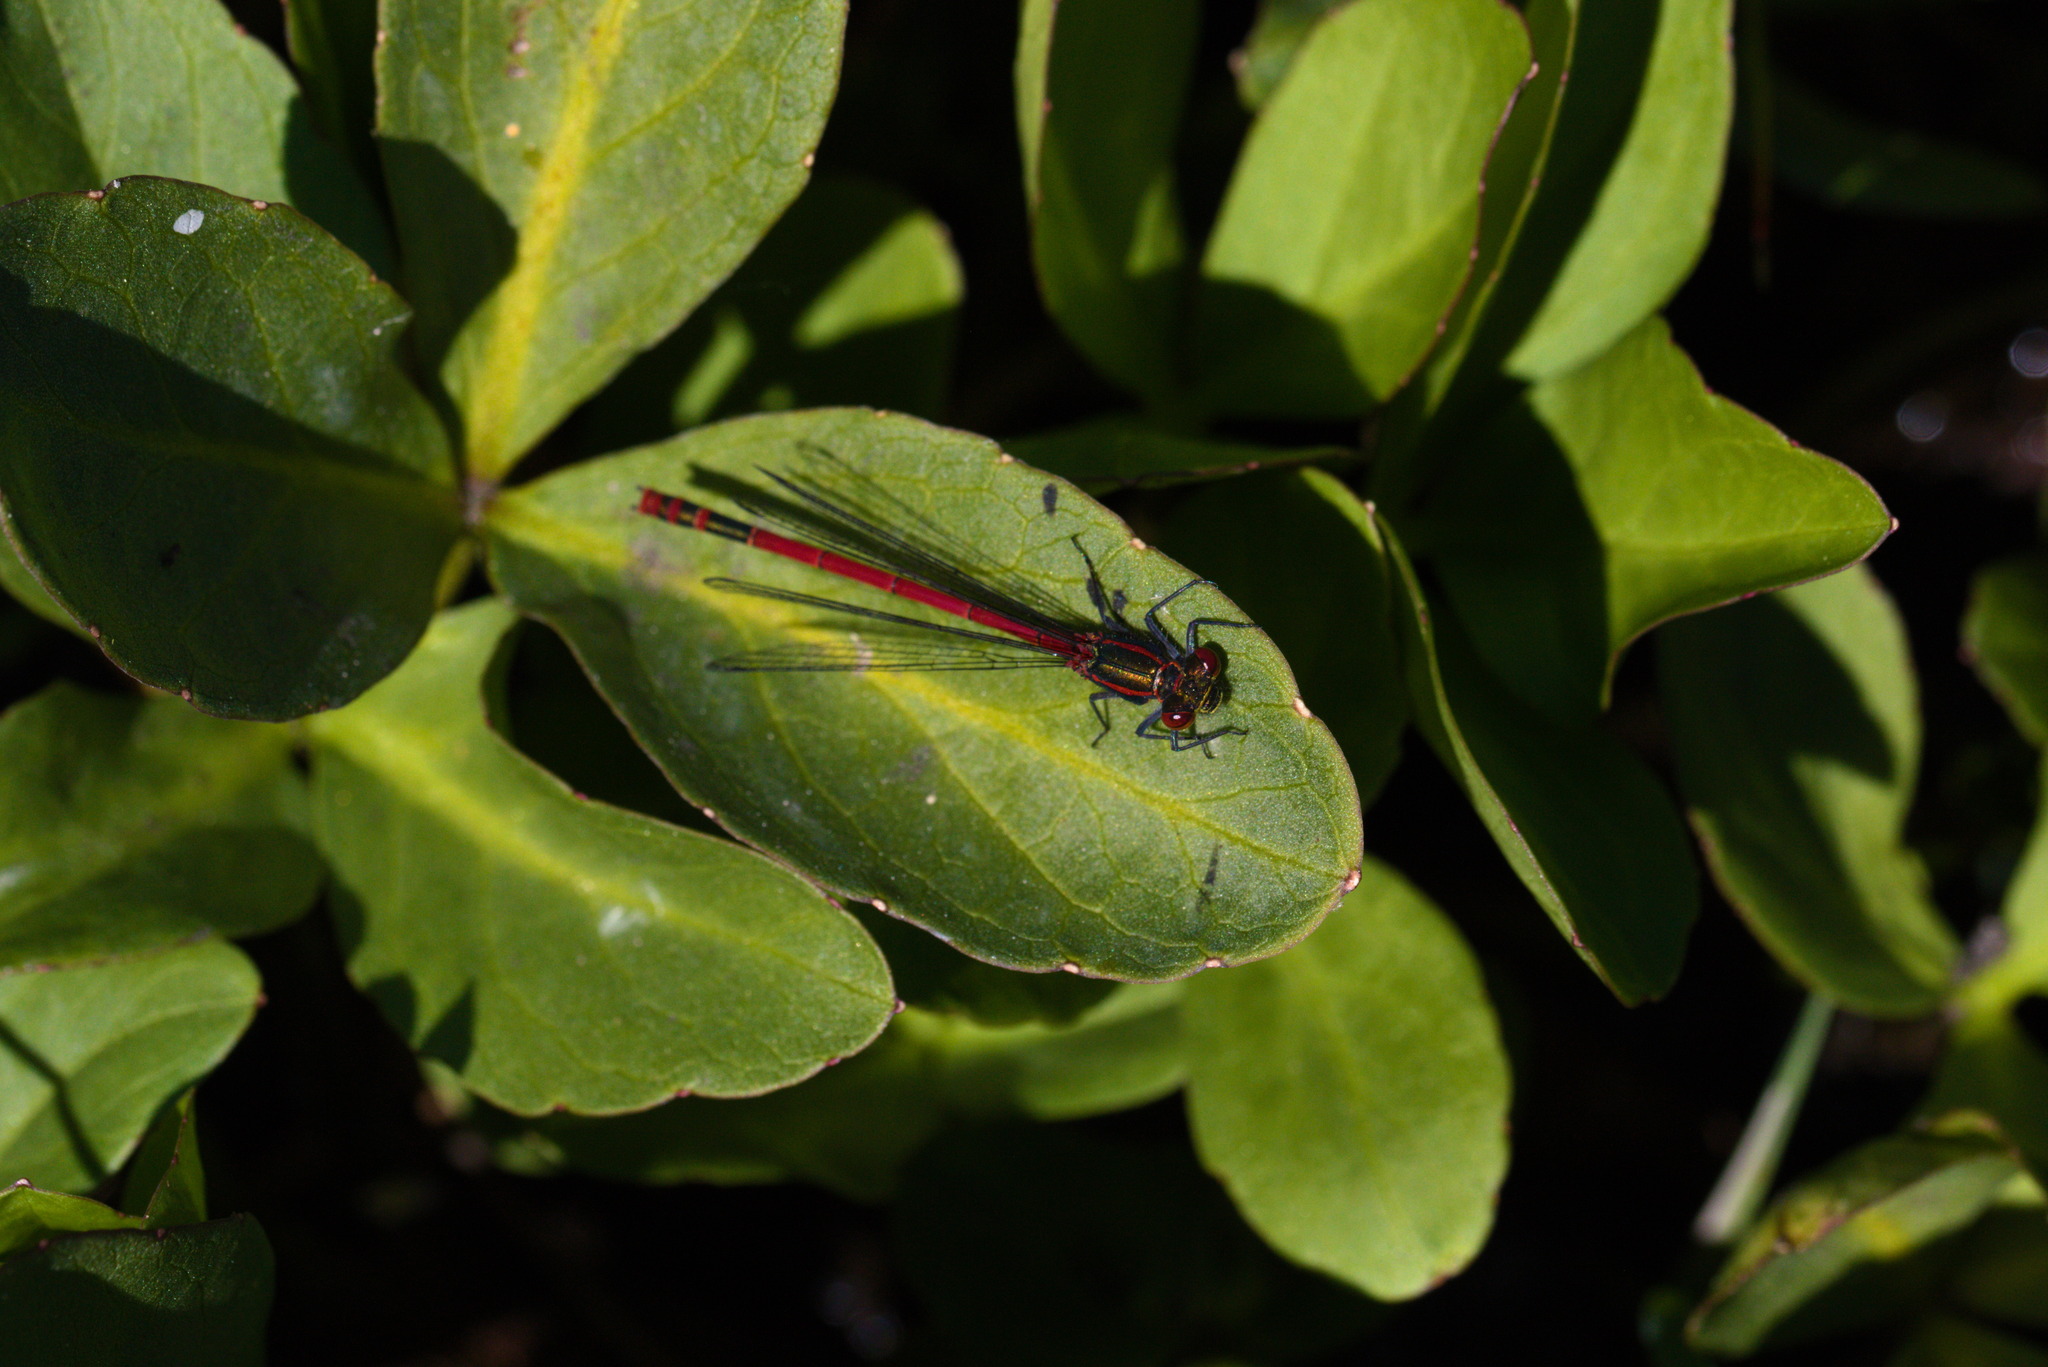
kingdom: Animalia
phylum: Arthropoda
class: Insecta
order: Odonata
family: Coenagrionidae
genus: Pyrrhosoma
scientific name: Pyrrhosoma nymphula
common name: Large red damsel
